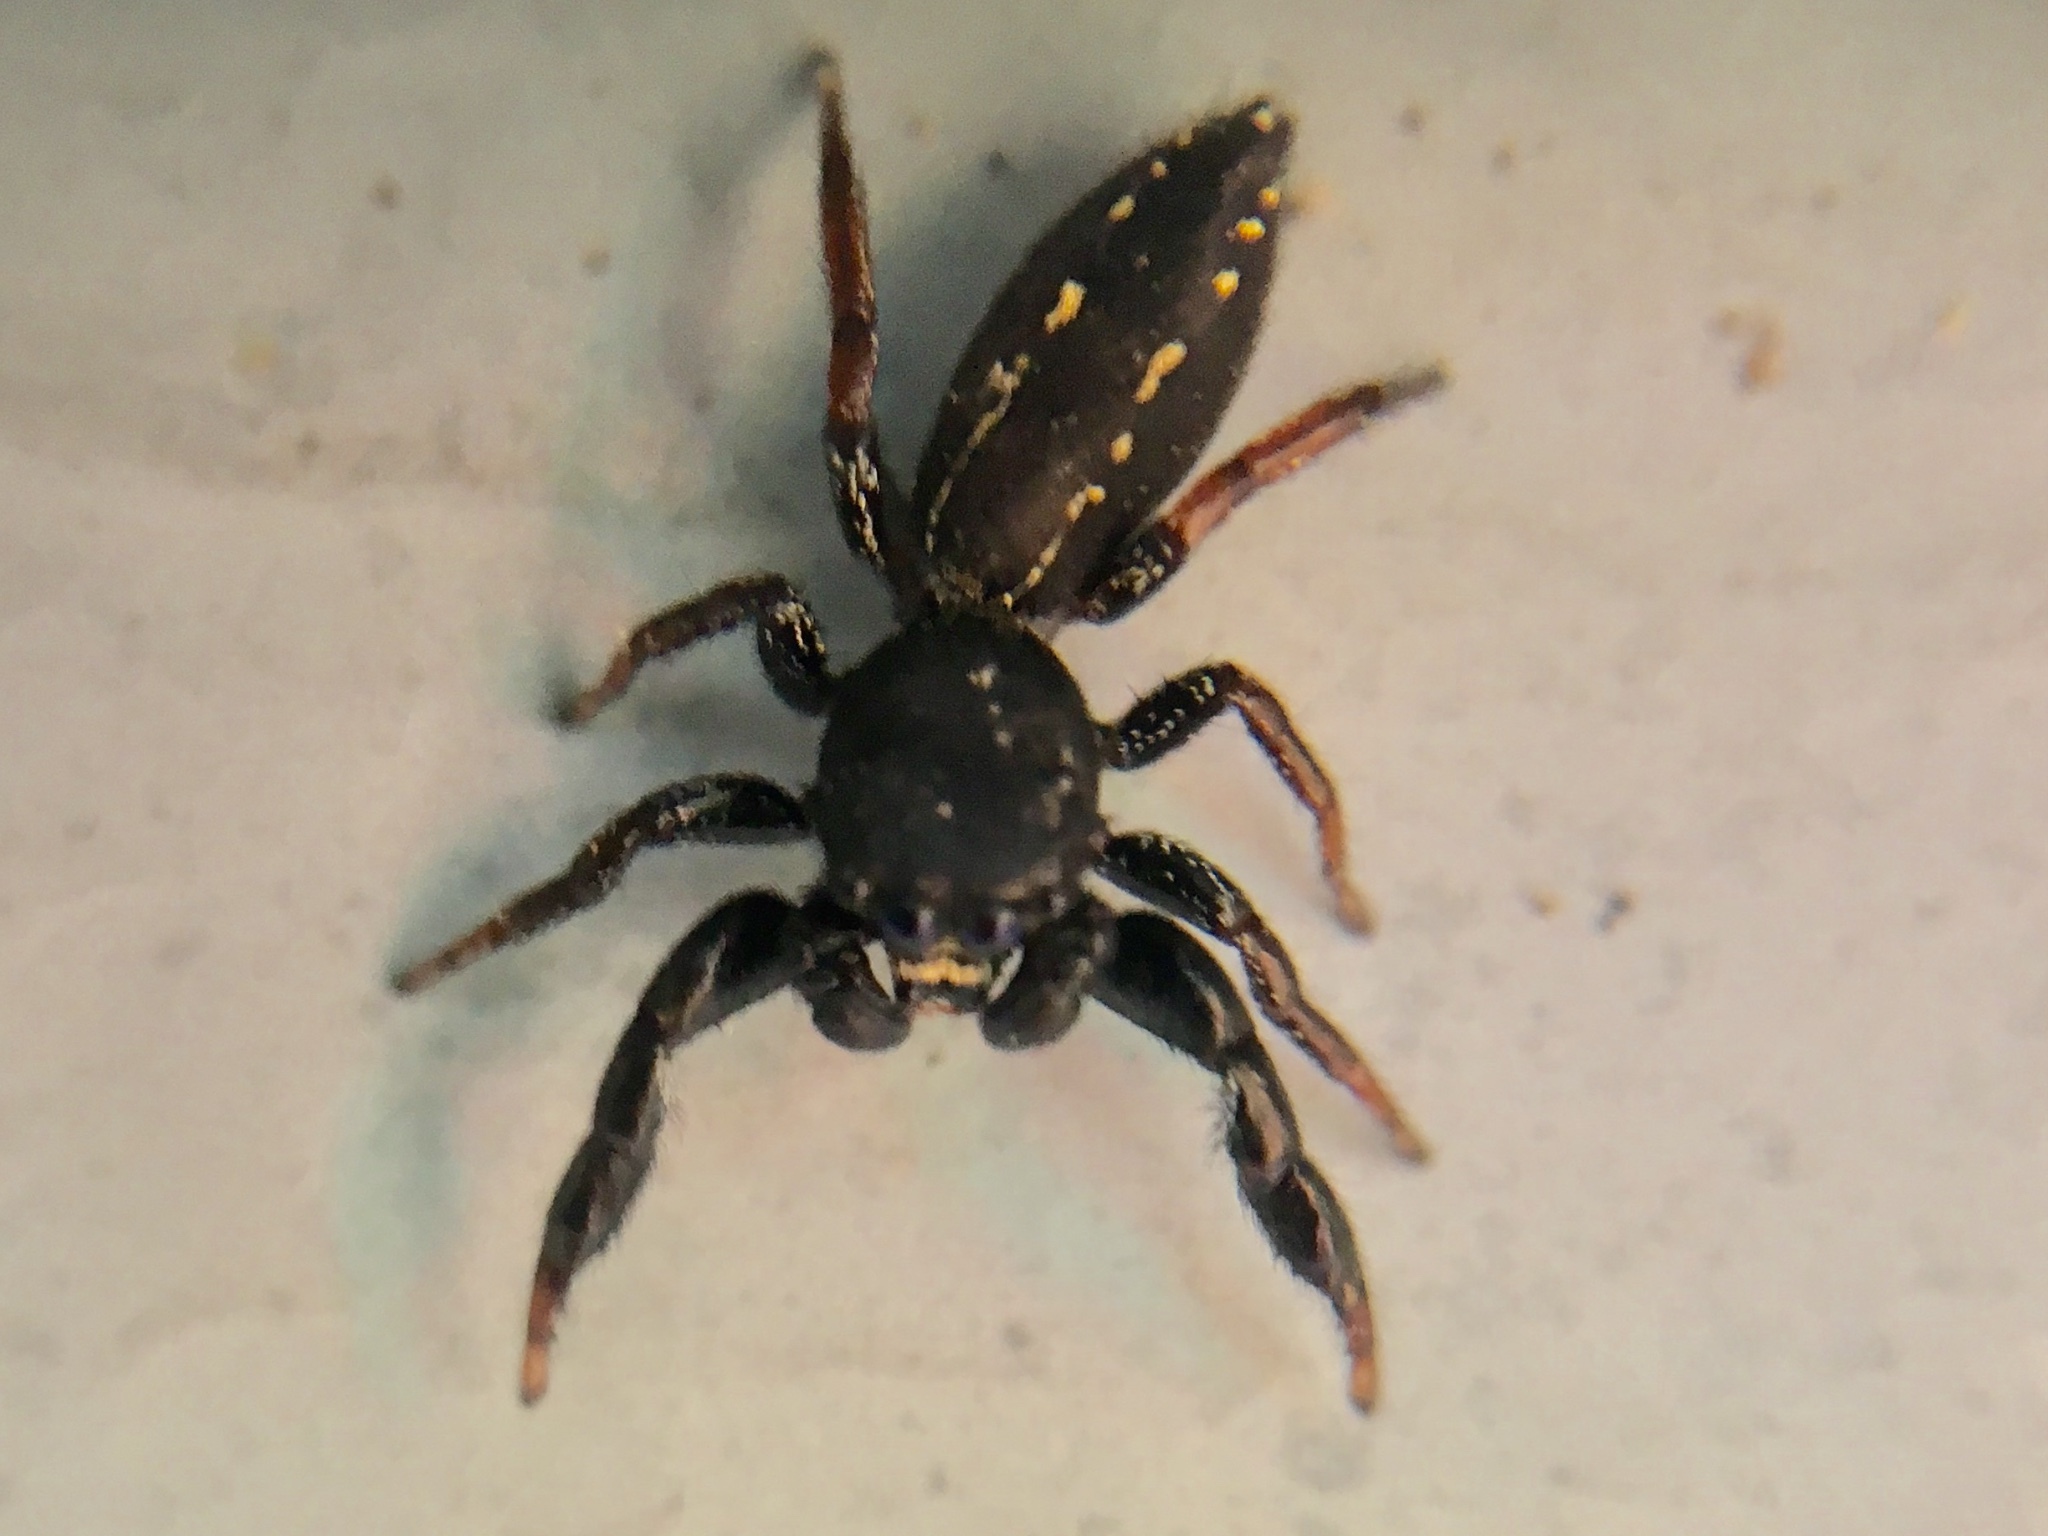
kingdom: Animalia
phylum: Arthropoda
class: Arachnida
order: Araneae
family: Salticidae
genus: Metacyrba
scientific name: Metacyrba taeniola
